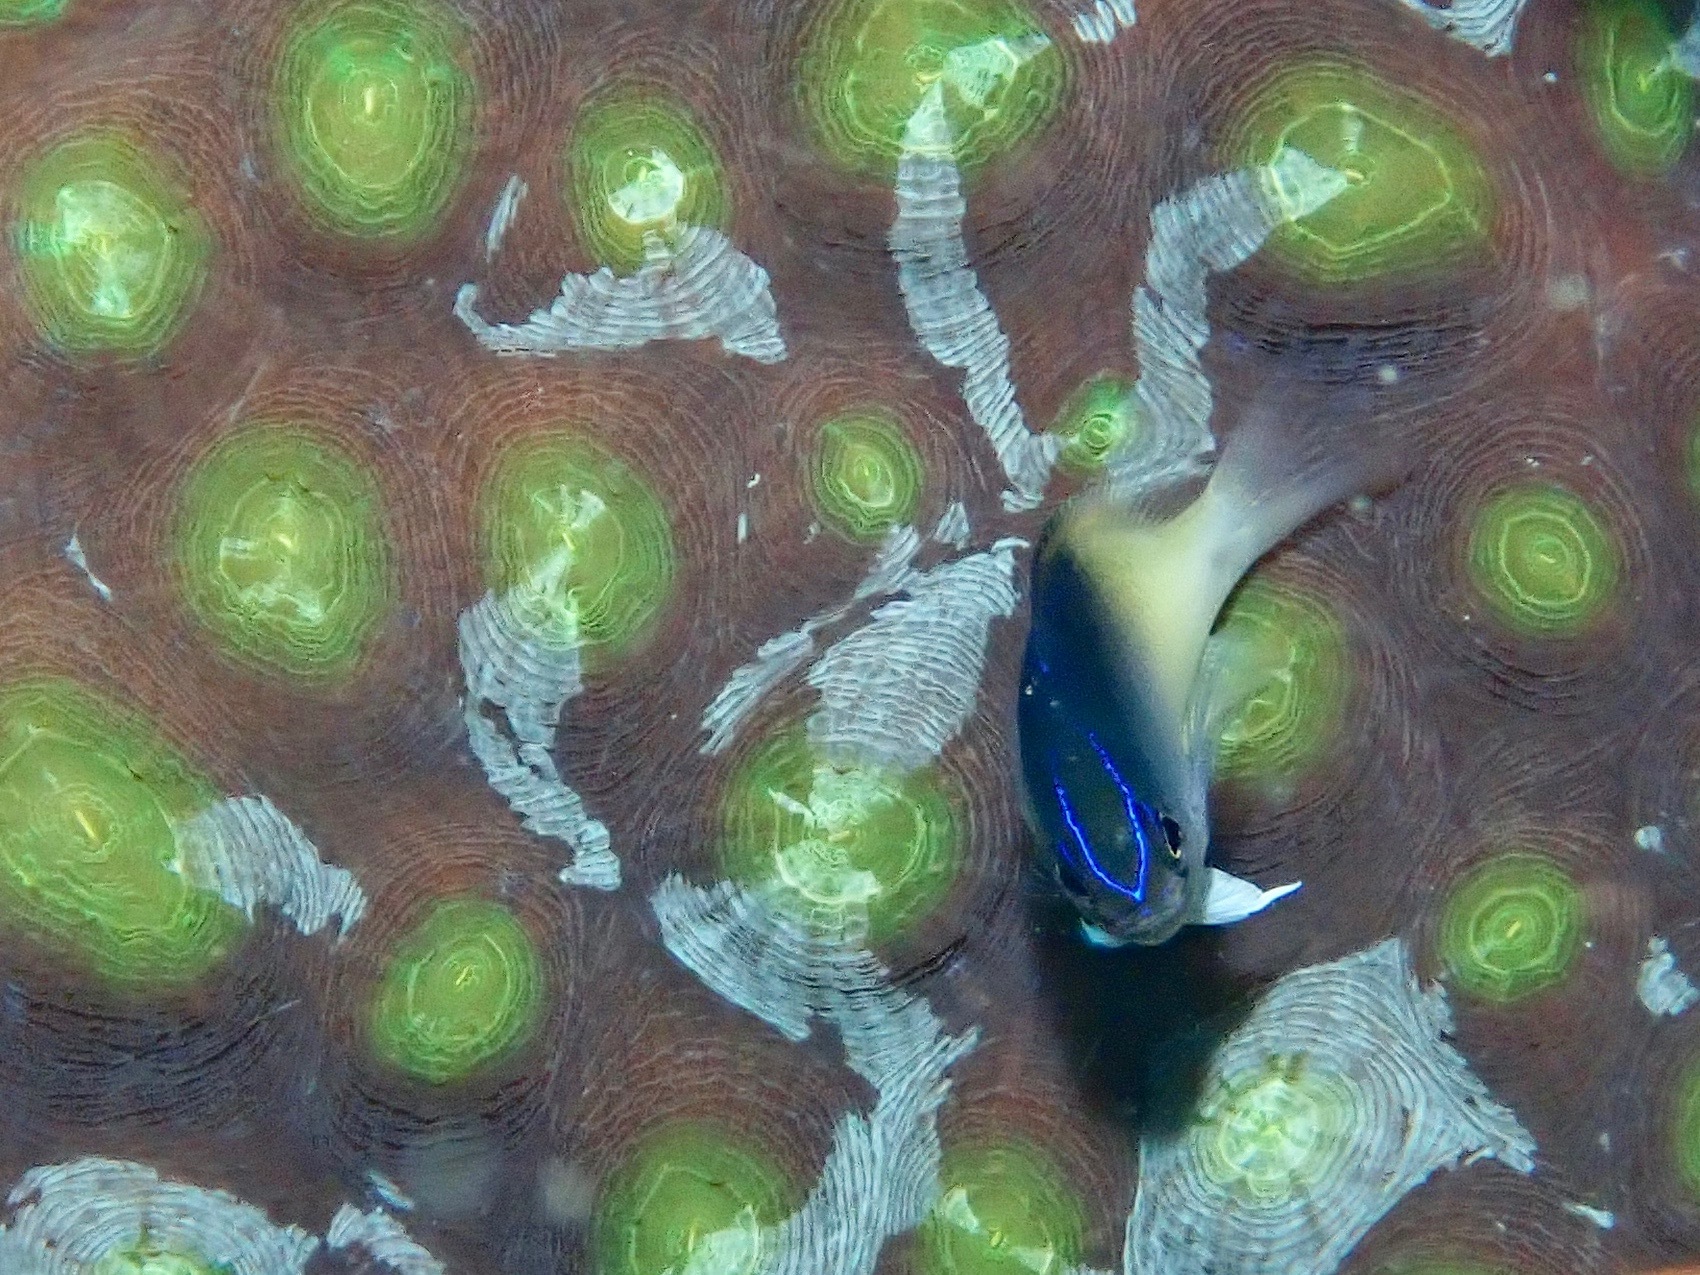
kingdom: Animalia
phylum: Chordata
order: Perciformes
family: Pomacentridae
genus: Chrysiptera
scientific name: Chrysiptera rollandi
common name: Rolland's demoiselle
